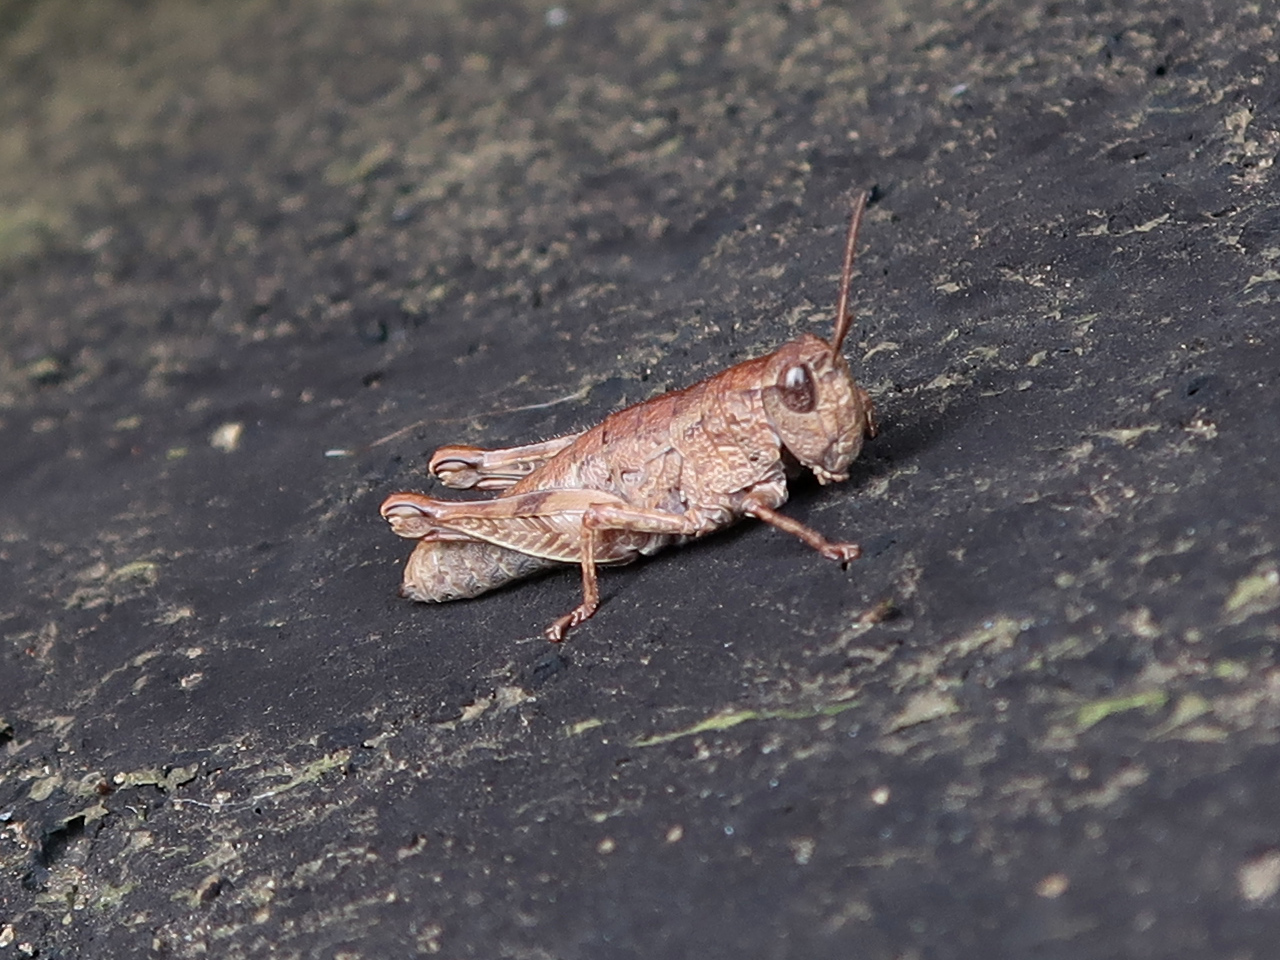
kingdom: Animalia
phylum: Arthropoda
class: Insecta
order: Orthoptera
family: Acrididae
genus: Tasmaniacris
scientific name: Tasmaniacris tasmaniensis
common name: Tasmanian grasshopper
